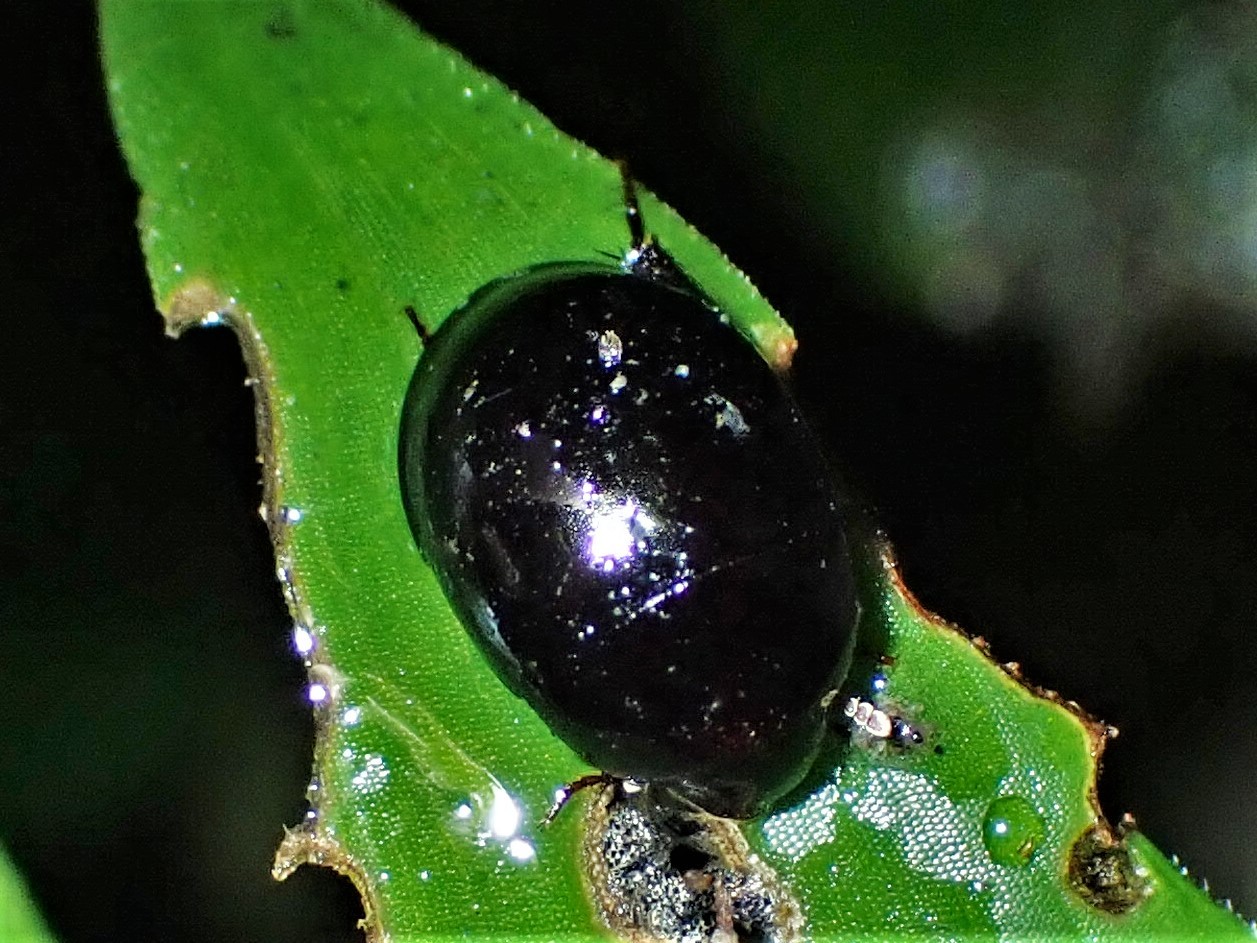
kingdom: Animalia
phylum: Arthropoda
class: Insecta
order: Coleoptera
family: Hydrophilidae
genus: Tormissus
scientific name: Tormissus linsi
